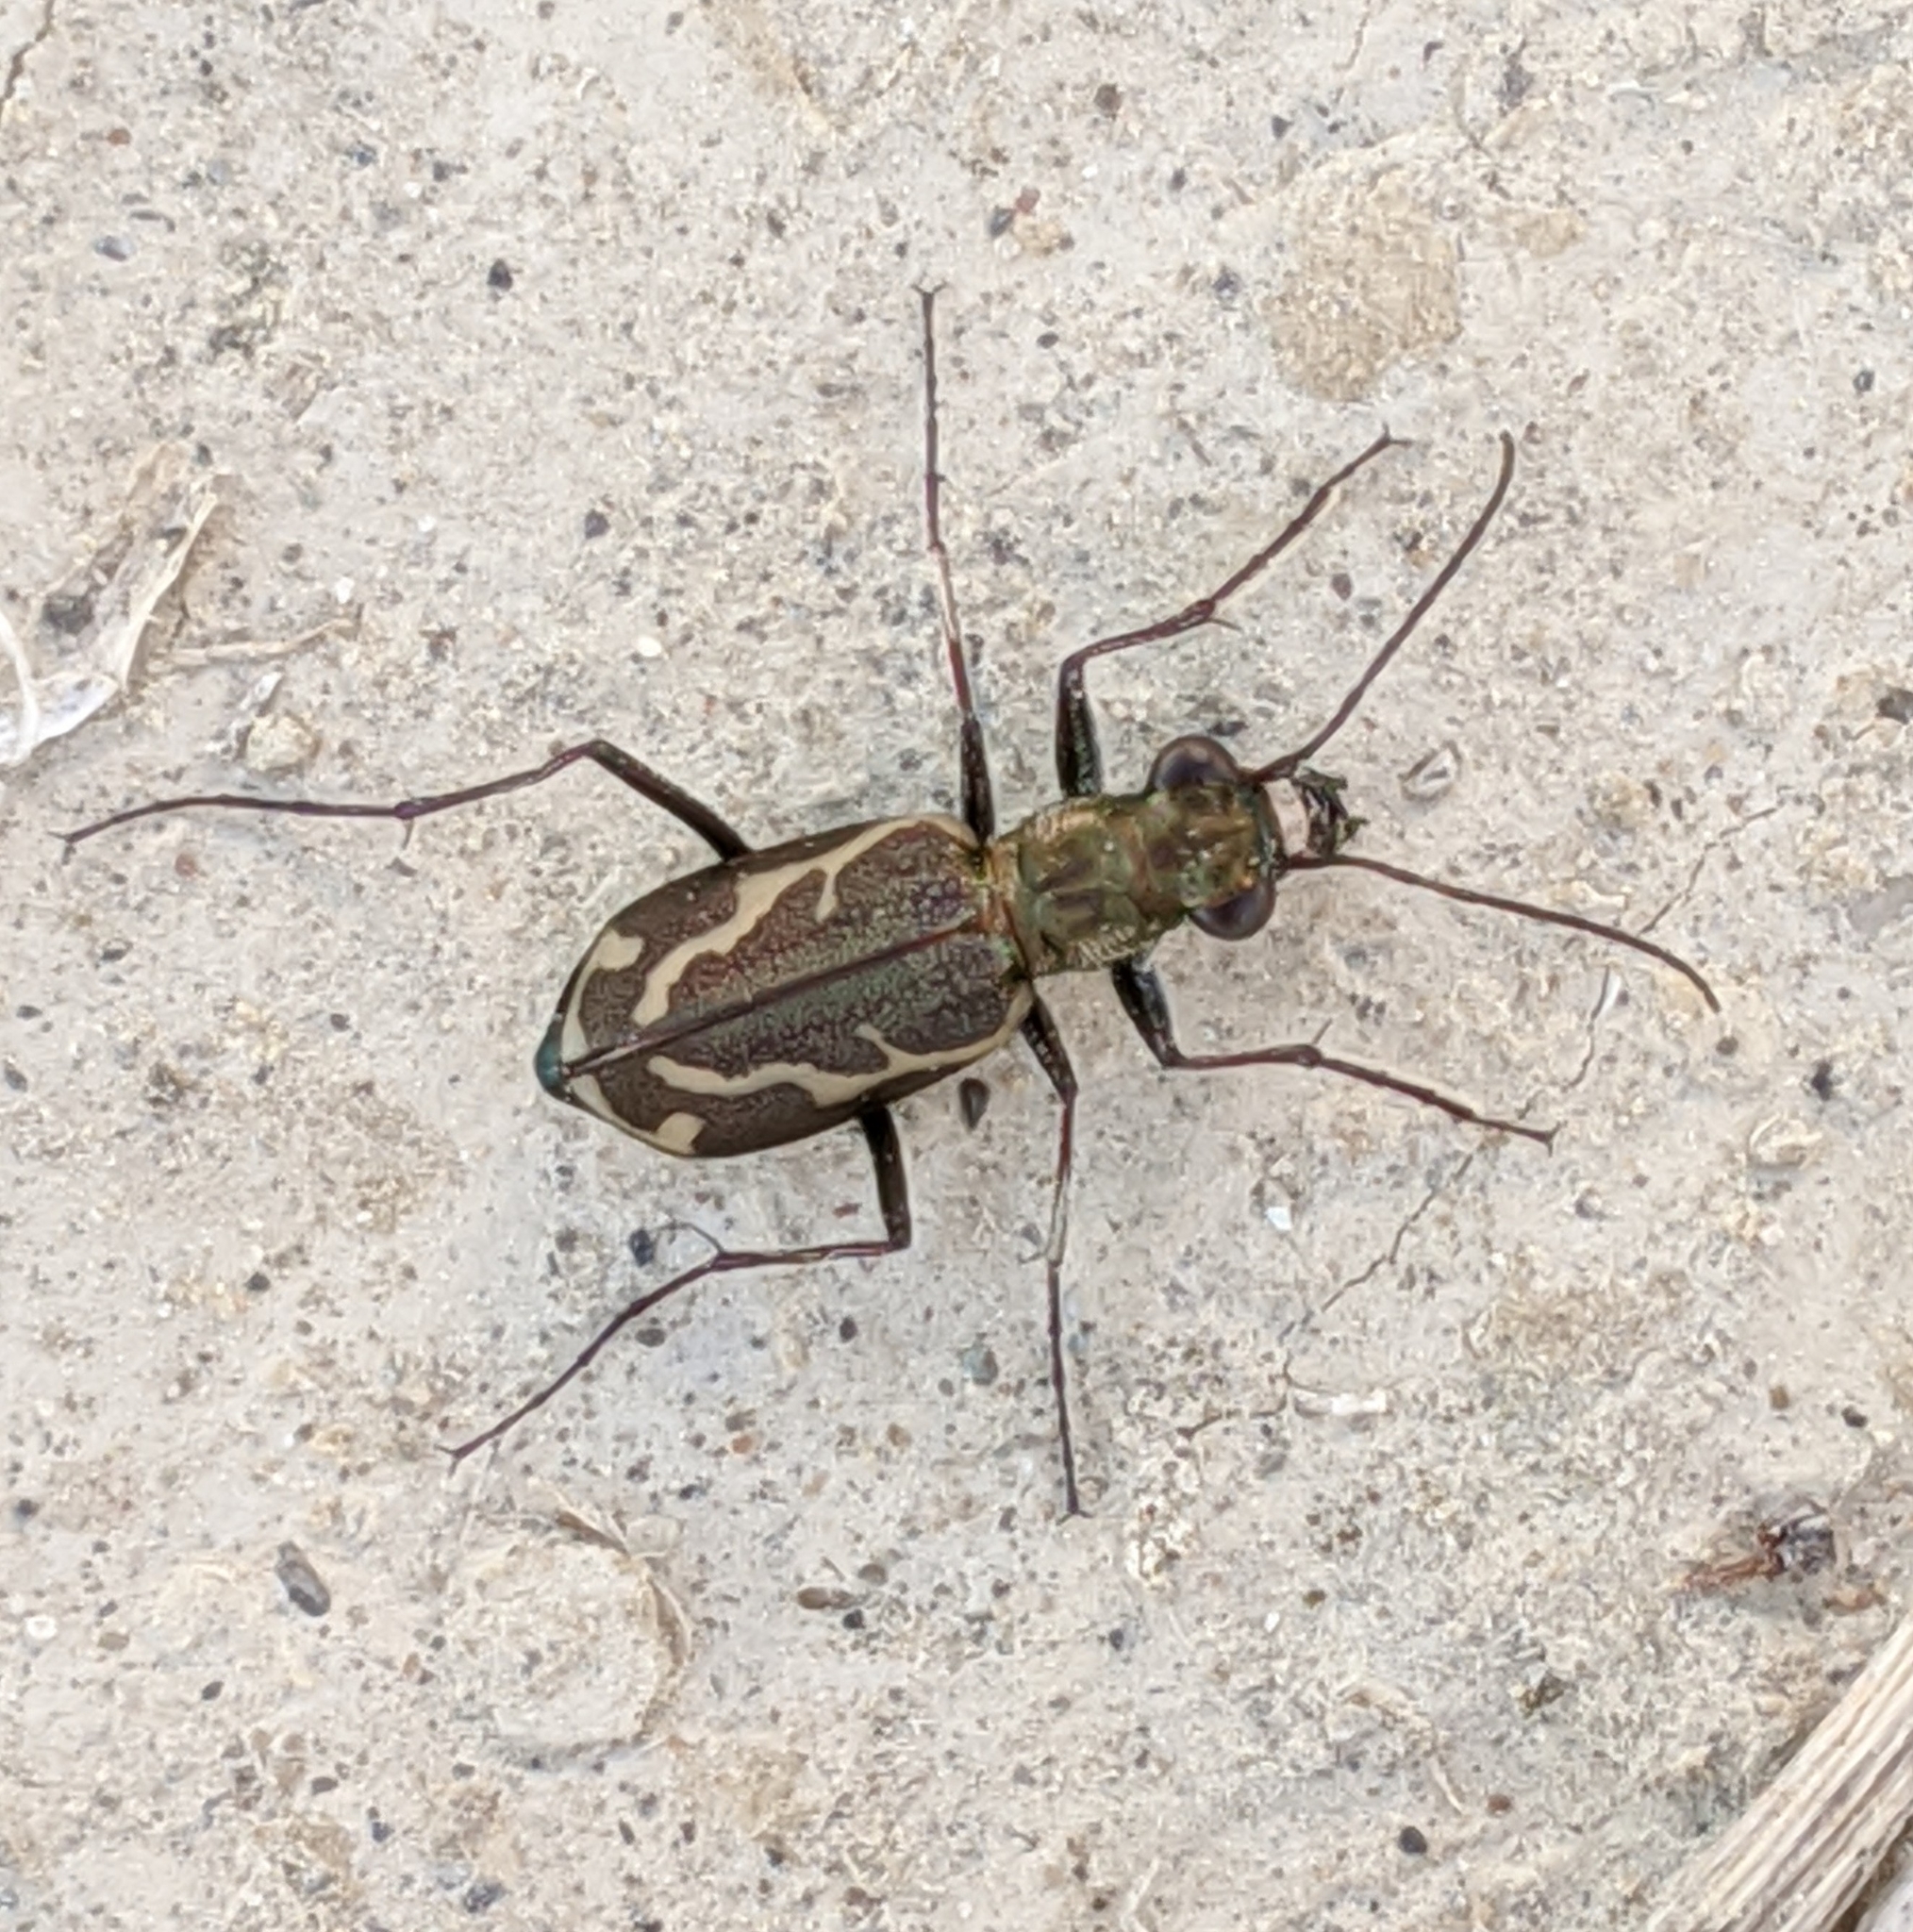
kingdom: Animalia
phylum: Arthropoda
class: Insecta
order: Coleoptera
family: Carabidae
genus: Cylindera
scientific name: Cylindera terricola
